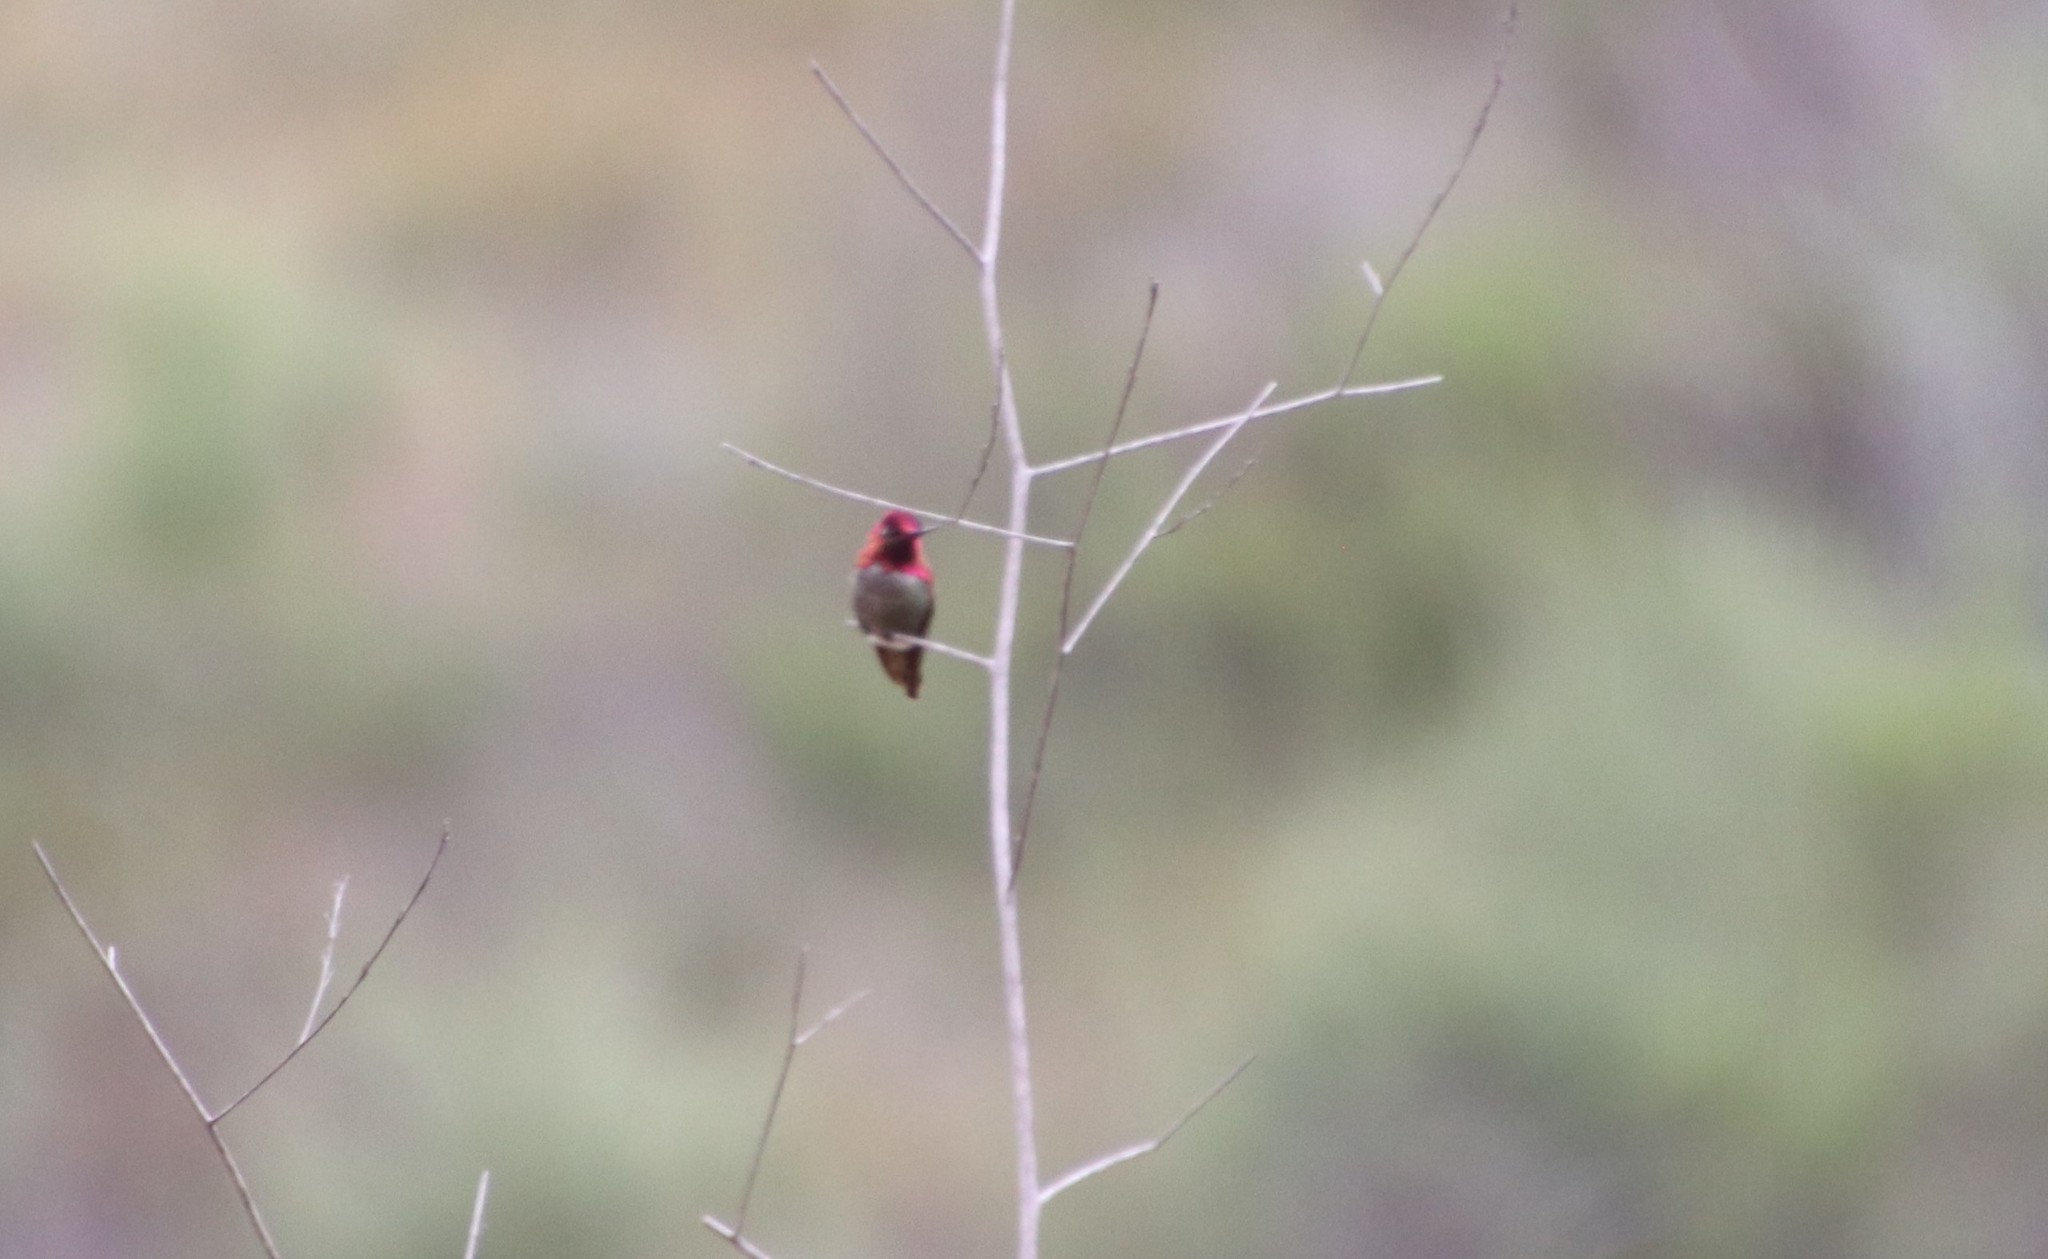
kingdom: Animalia
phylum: Chordata
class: Aves
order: Apodiformes
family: Trochilidae
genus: Calypte
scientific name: Calypte anna
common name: Anna's hummingbird
